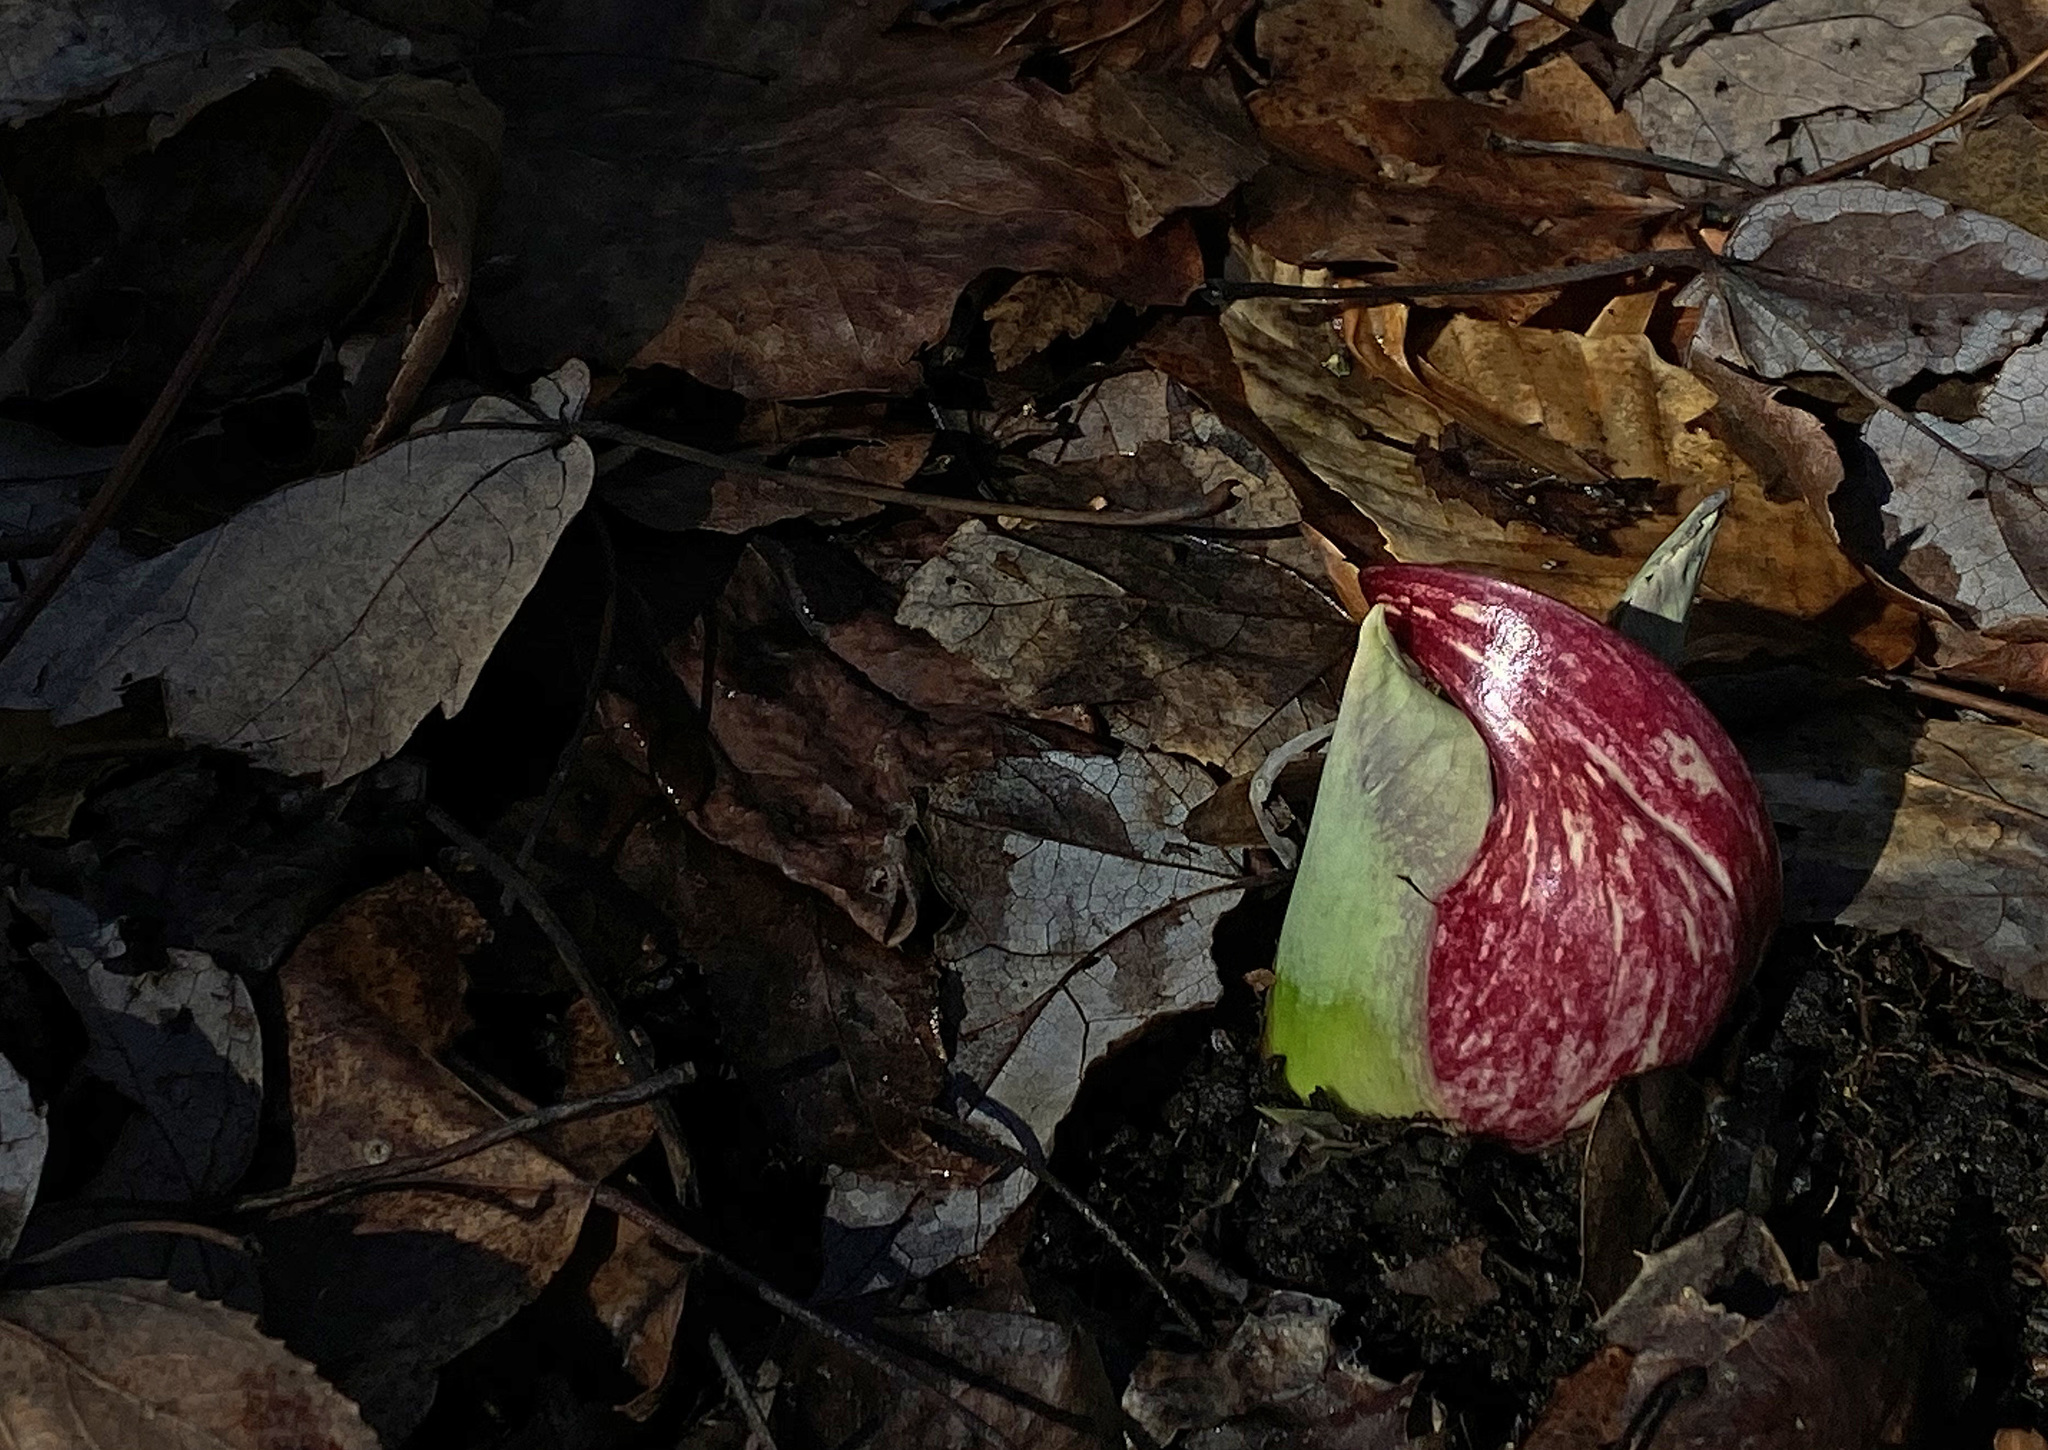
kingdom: Plantae
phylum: Tracheophyta
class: Liliopsida
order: Alismatales
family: Araceae
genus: Symplocarpus
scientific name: Symplocarpus foetidus
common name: Eastern skunk cabbage
